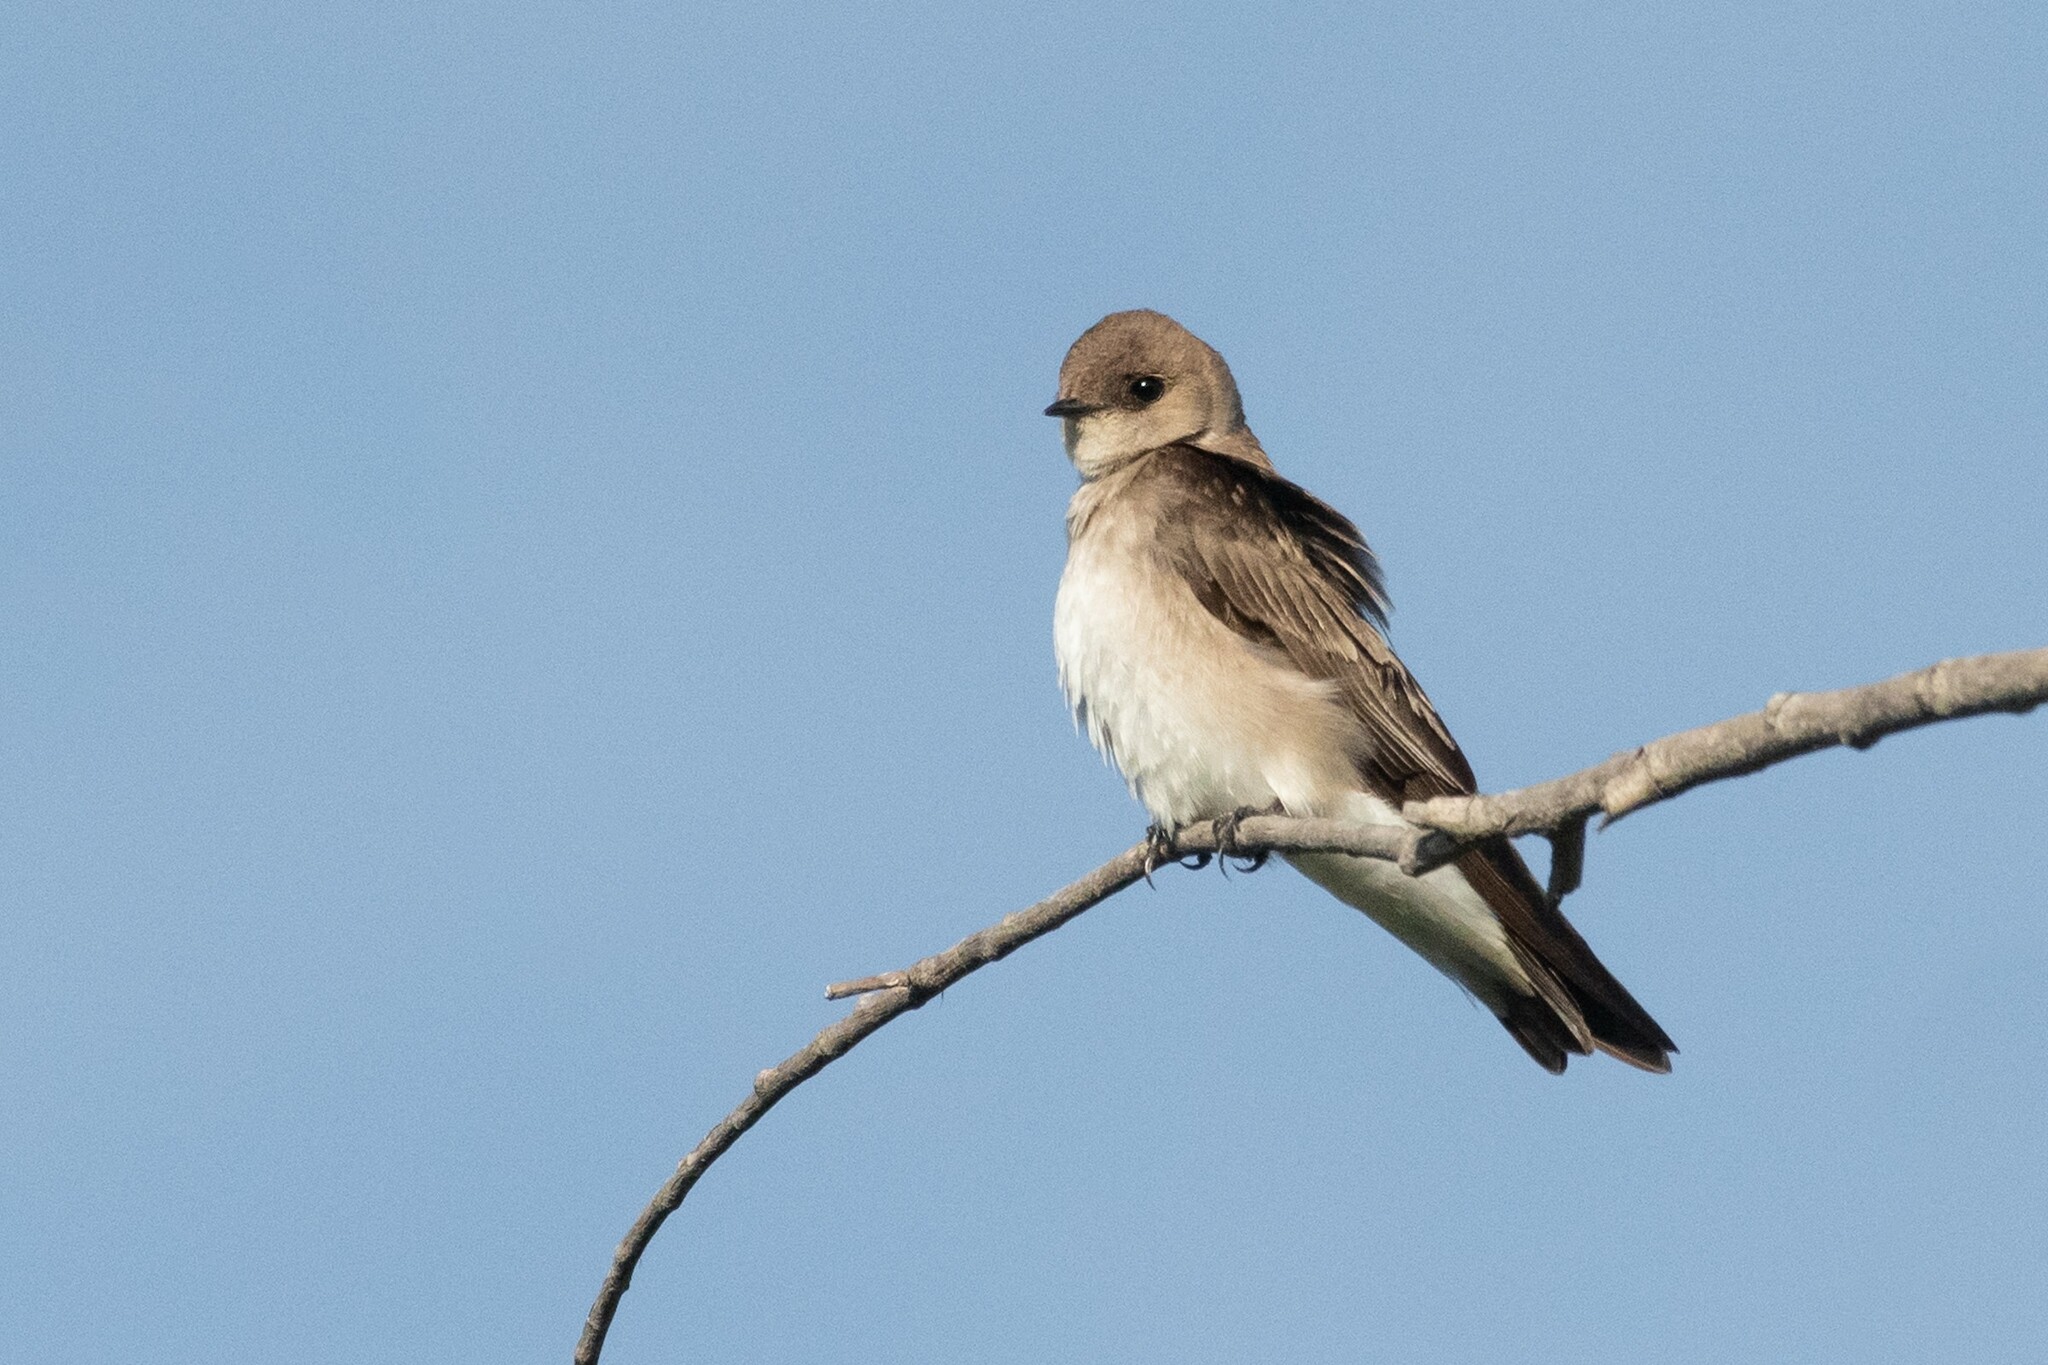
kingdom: Animalia
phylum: Chordata
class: Aves
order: Passeriformes
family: Hirundinidae
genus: Stelgidopteryx
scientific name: Stelgidopteryx serripennis
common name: Northern rough-winged swallow
